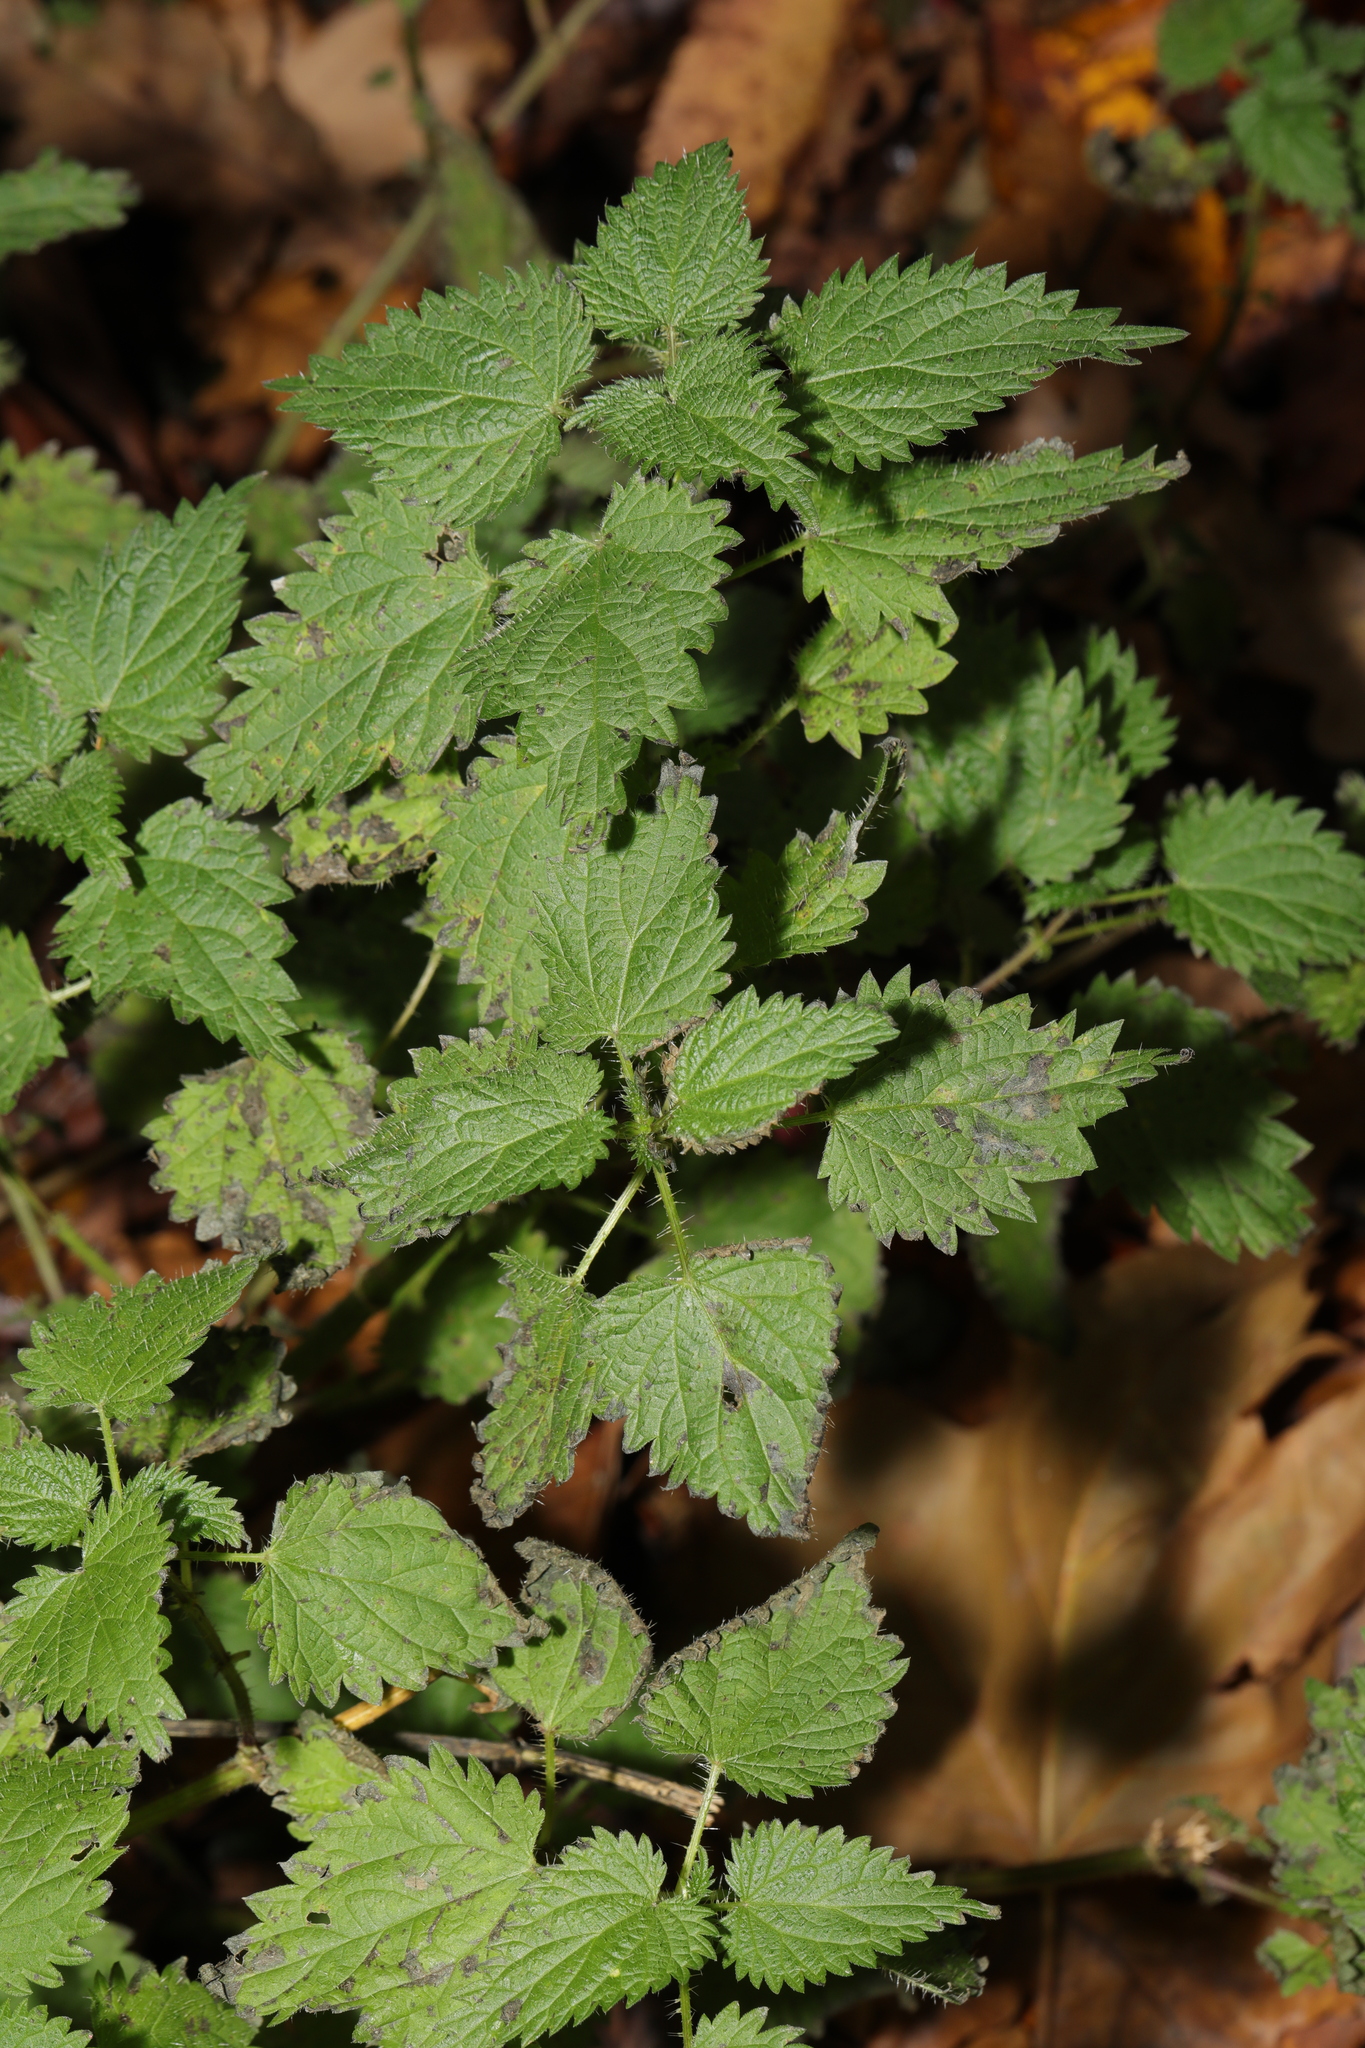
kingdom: Plantae
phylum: Tracheophyta
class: Magnoliopsida
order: Rosales
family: Urticaceae
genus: Urtica
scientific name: Urtica dioica
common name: Common nettle
